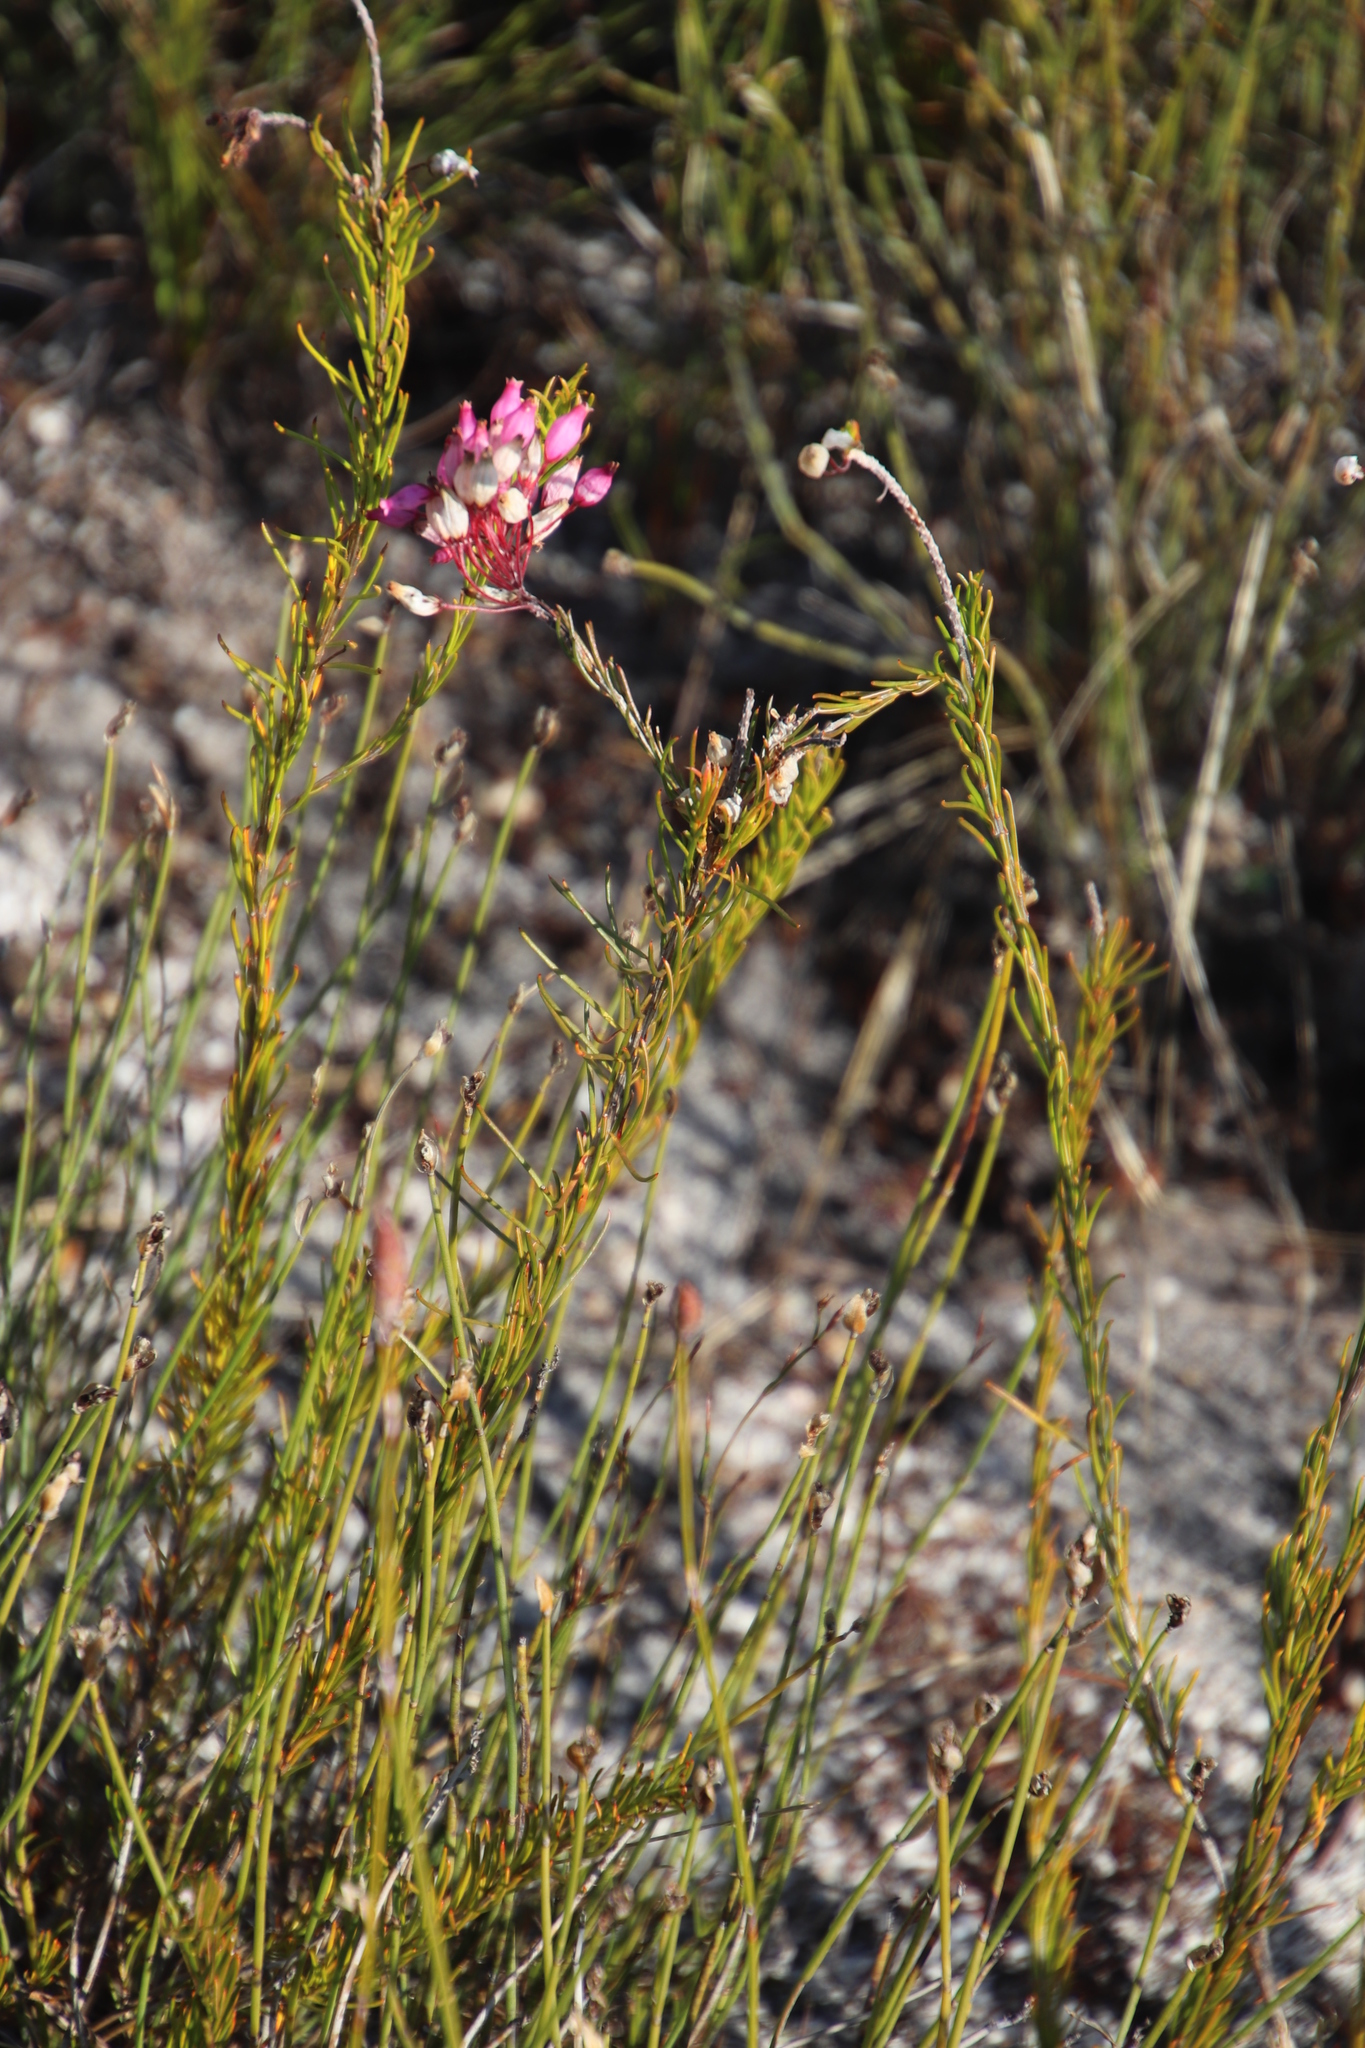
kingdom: Plantae
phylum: Tracheophyta
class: Magnoliopsida
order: Ericales
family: Ericaceae
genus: Erica
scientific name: Erica inflata
